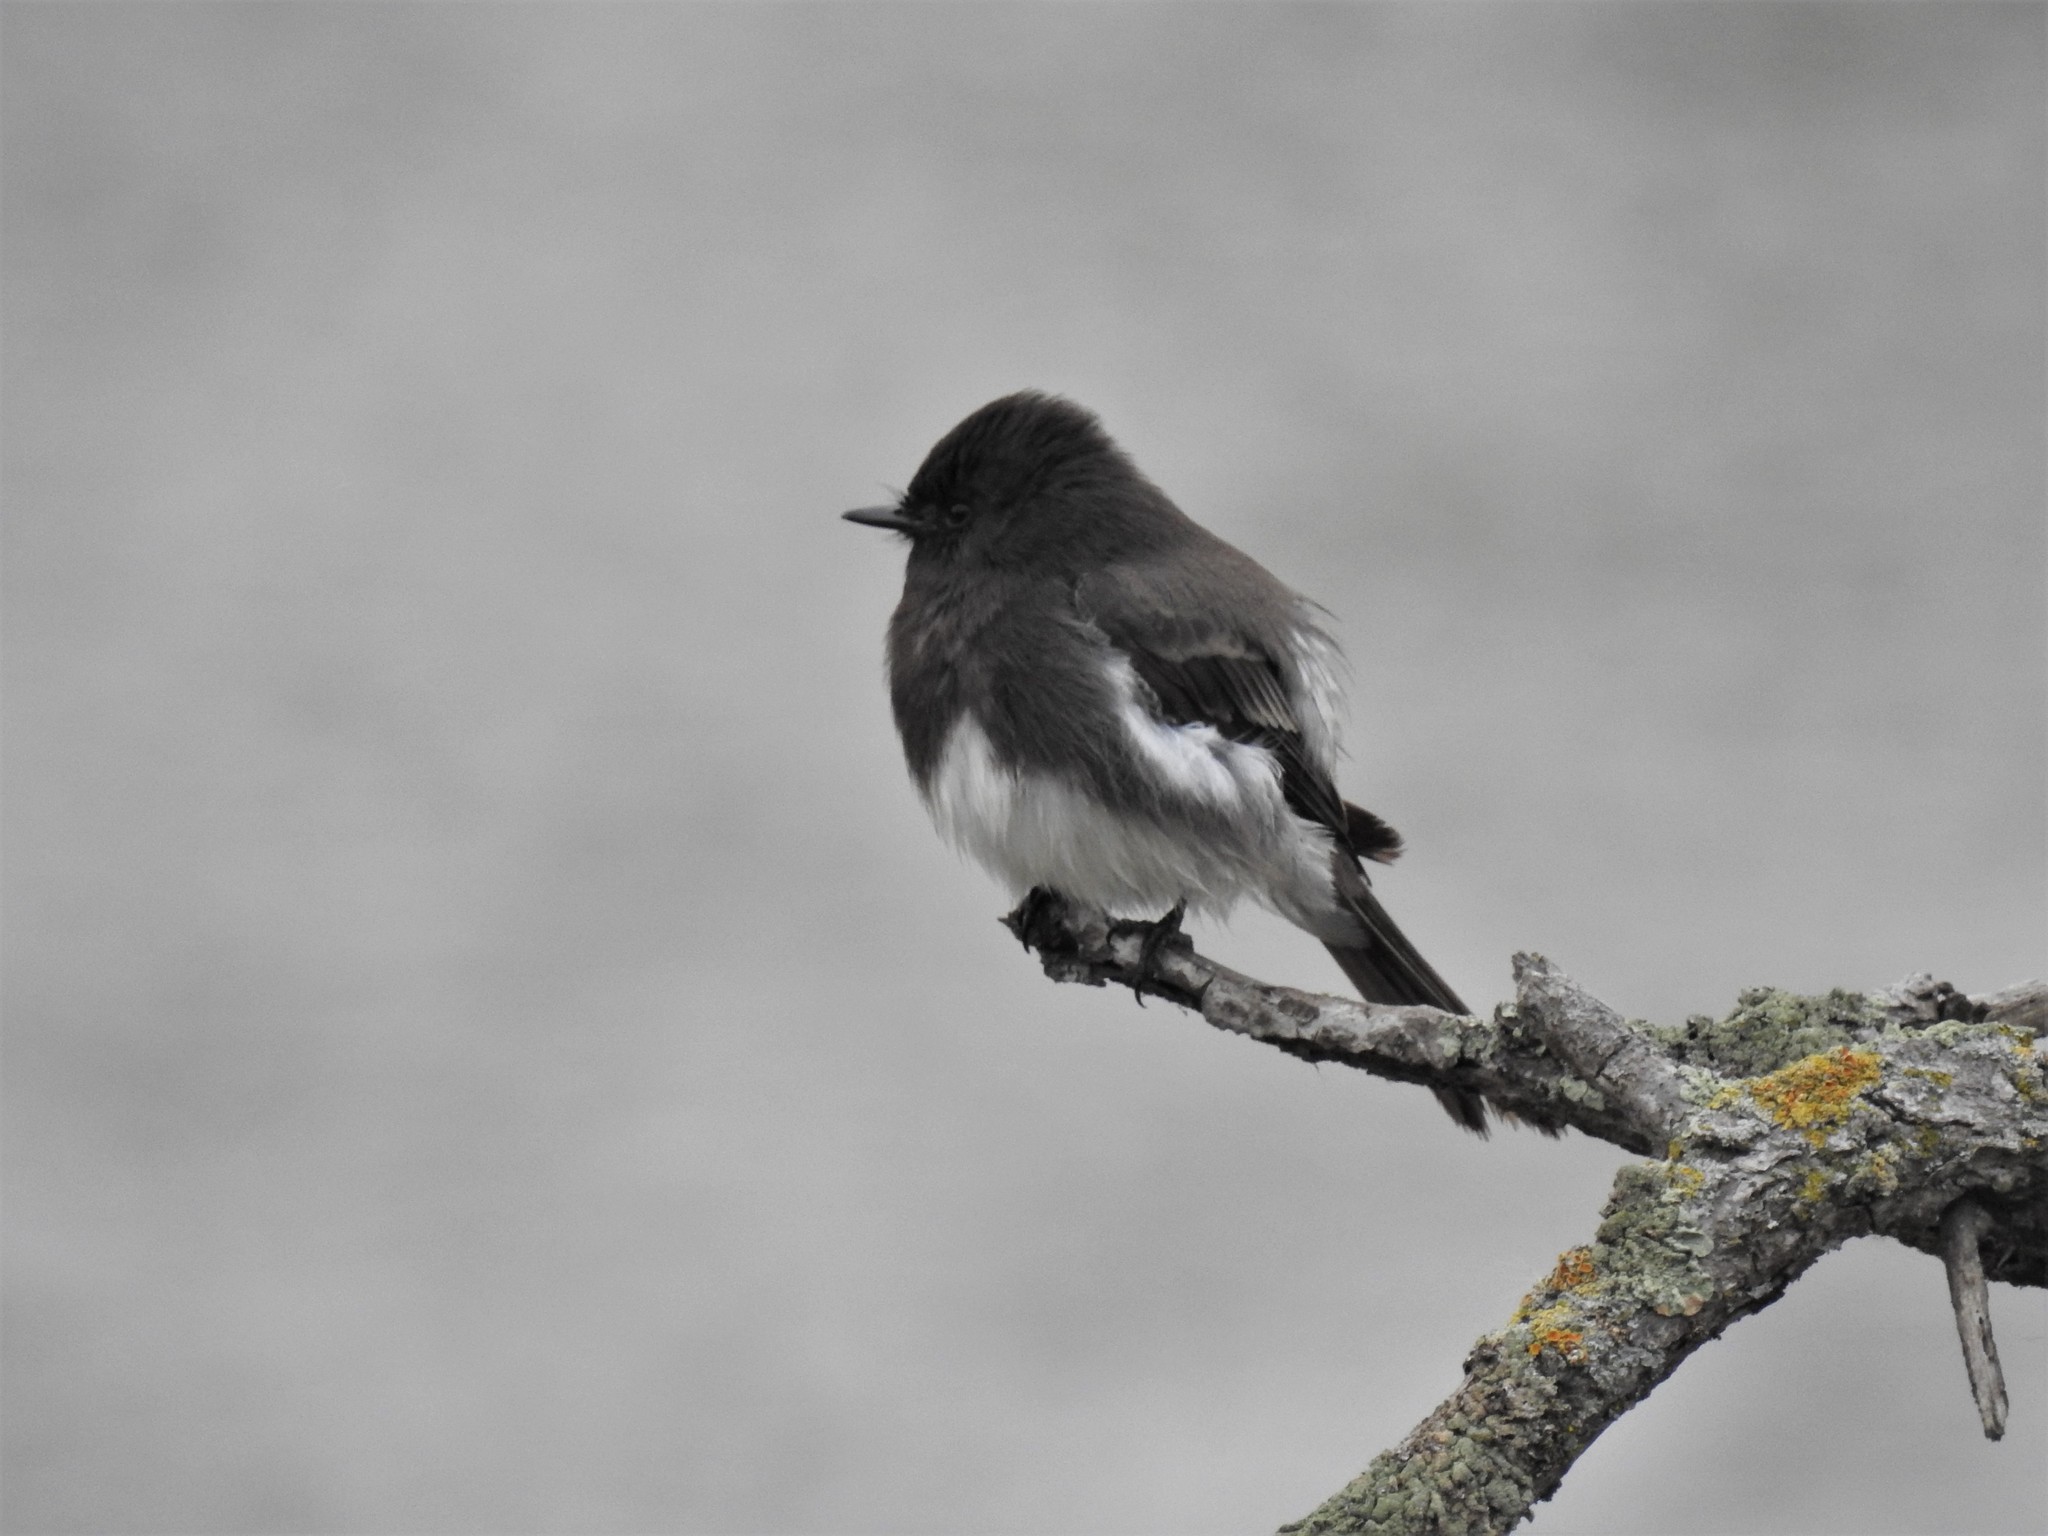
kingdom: Animalia
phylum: Chordata
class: Aves
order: Passeriformes
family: Tyrannidae
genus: Sayornis
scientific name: Sayornis nigricans
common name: Black phoebe
